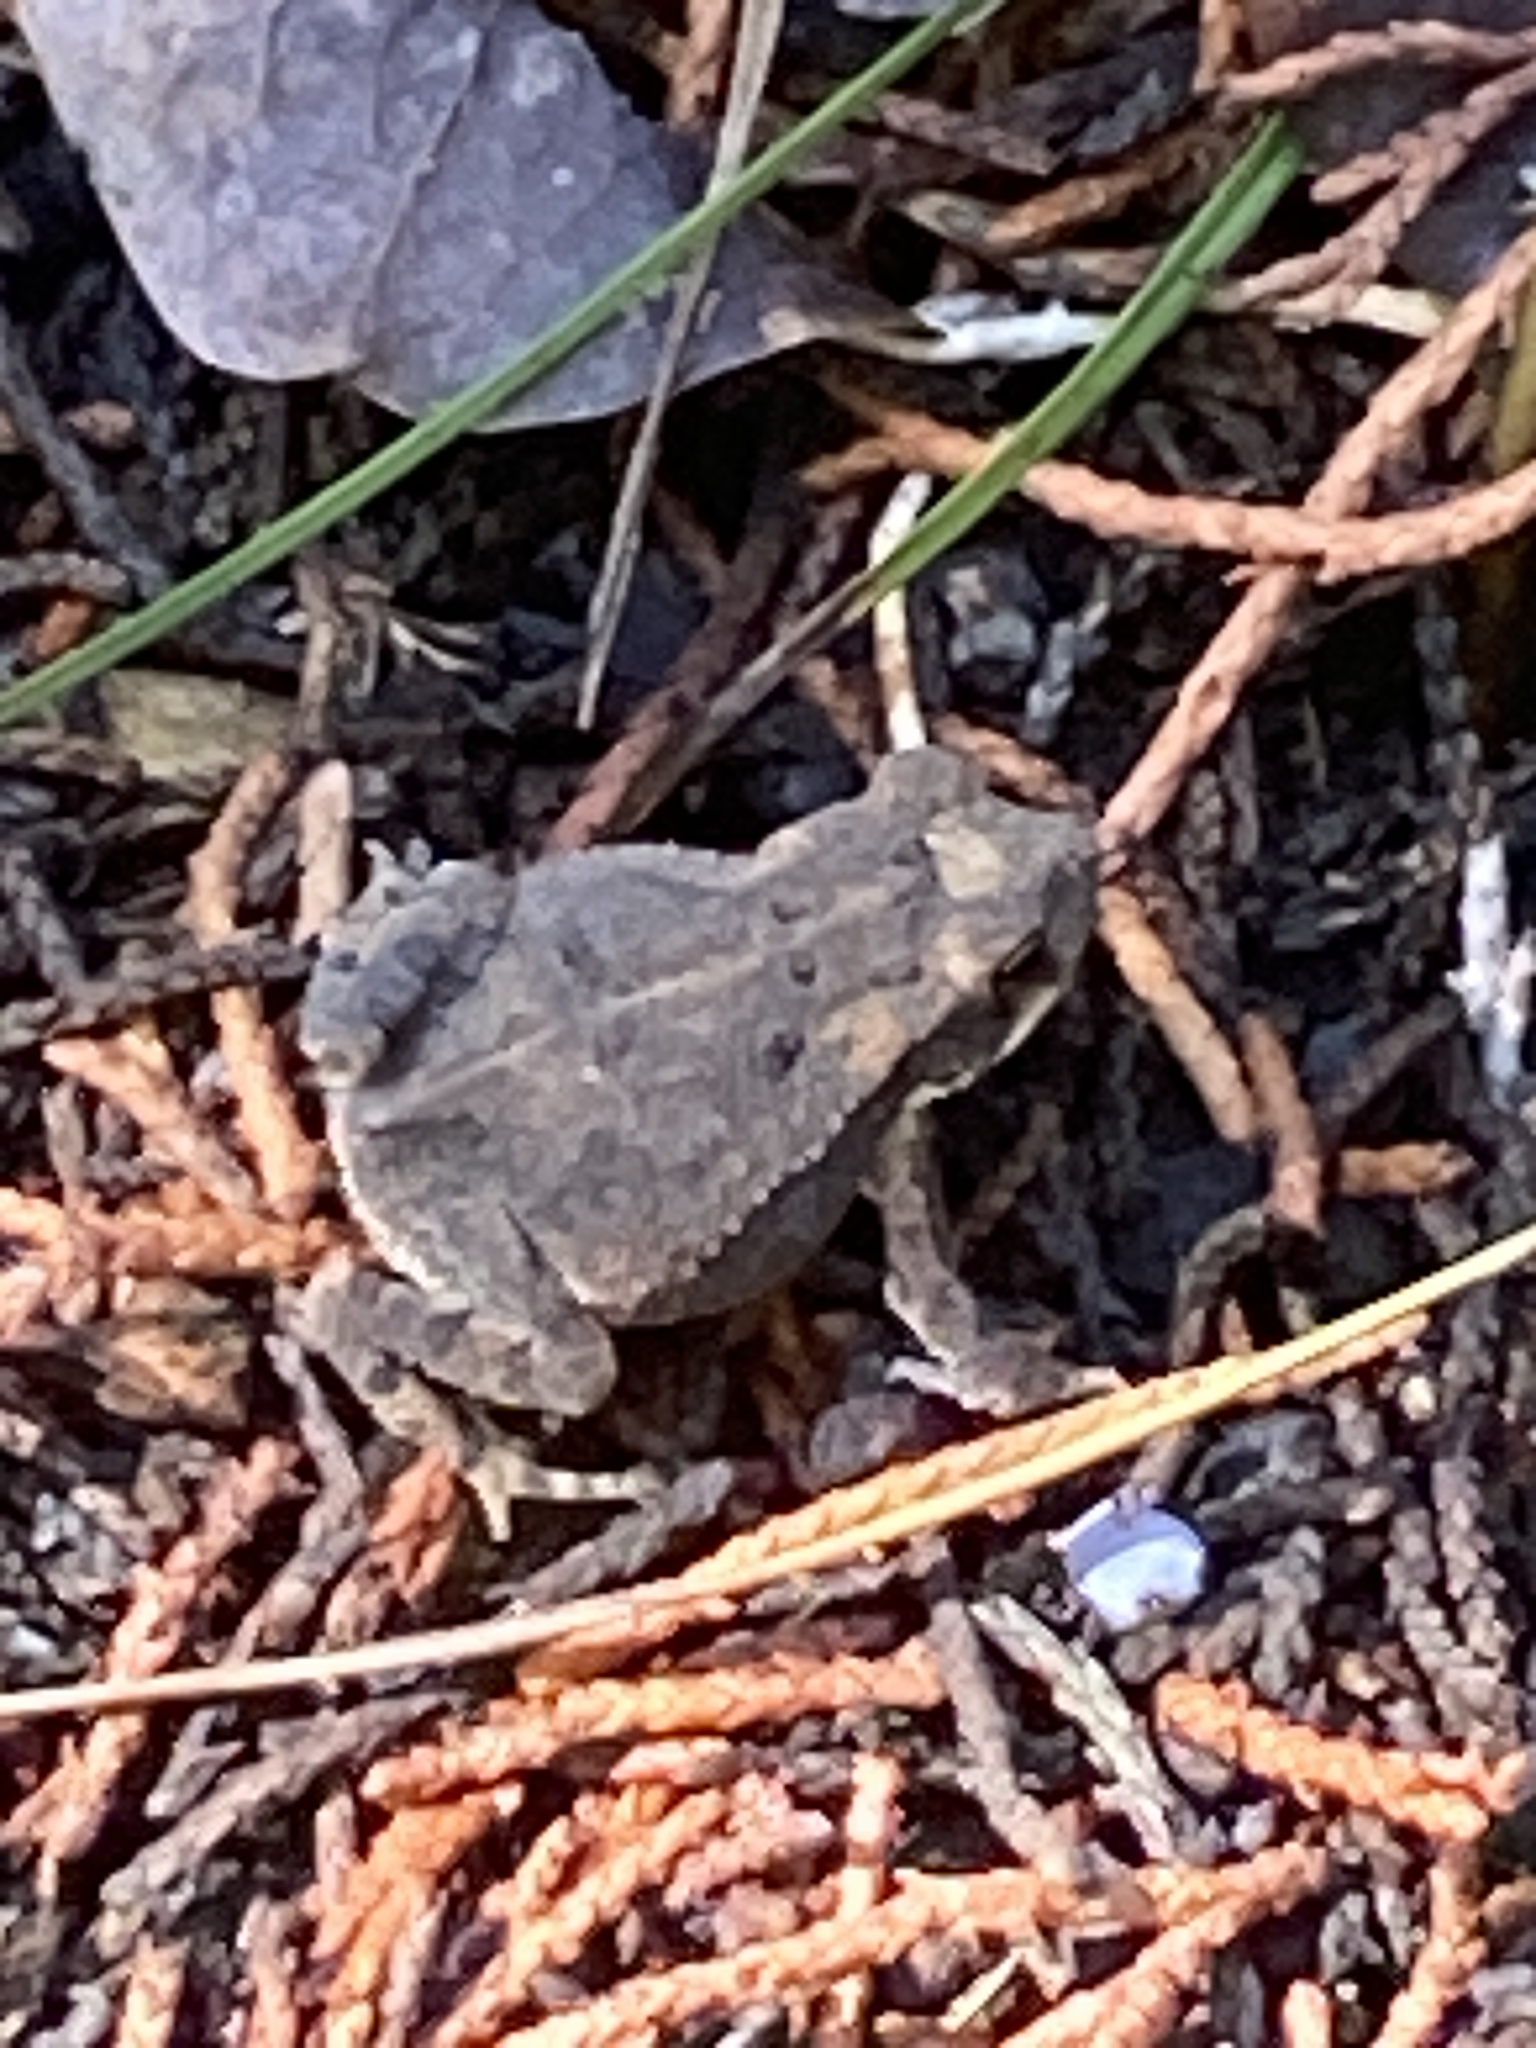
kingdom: Animalia
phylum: Chordata
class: Amphibia
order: Anura
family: Bufonidae
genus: Incilius
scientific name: Incilius nebulifer
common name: Gulf coast toad
